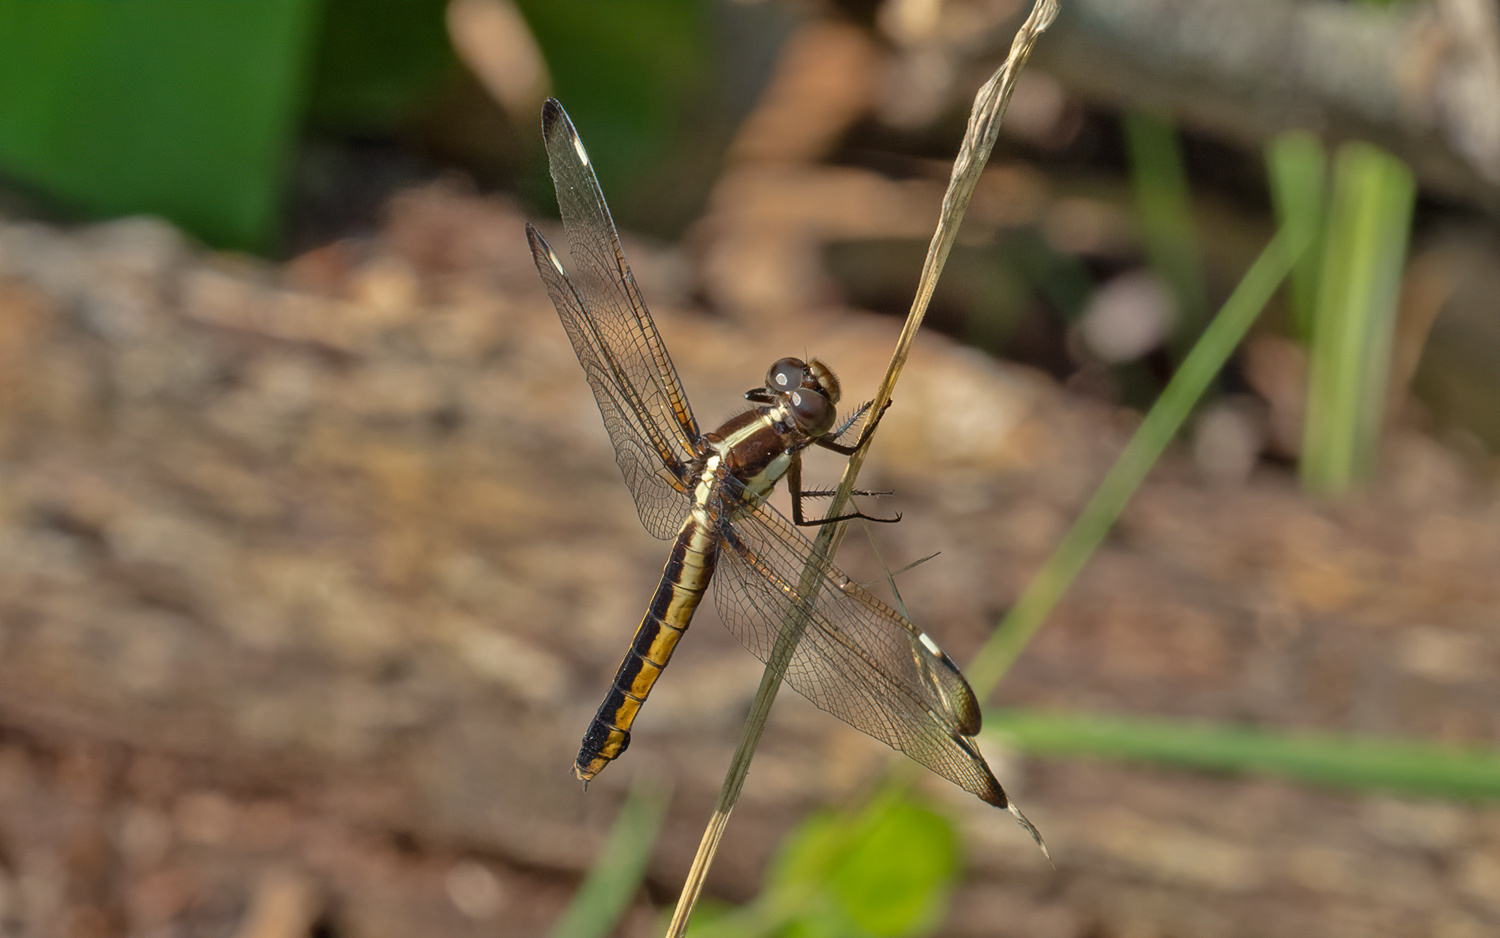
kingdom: Animalia
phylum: Arthropoda
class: Insecta
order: Odonata
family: Libellulidae
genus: Libellula
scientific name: Libellula luctuosa
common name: Widow skimmer
